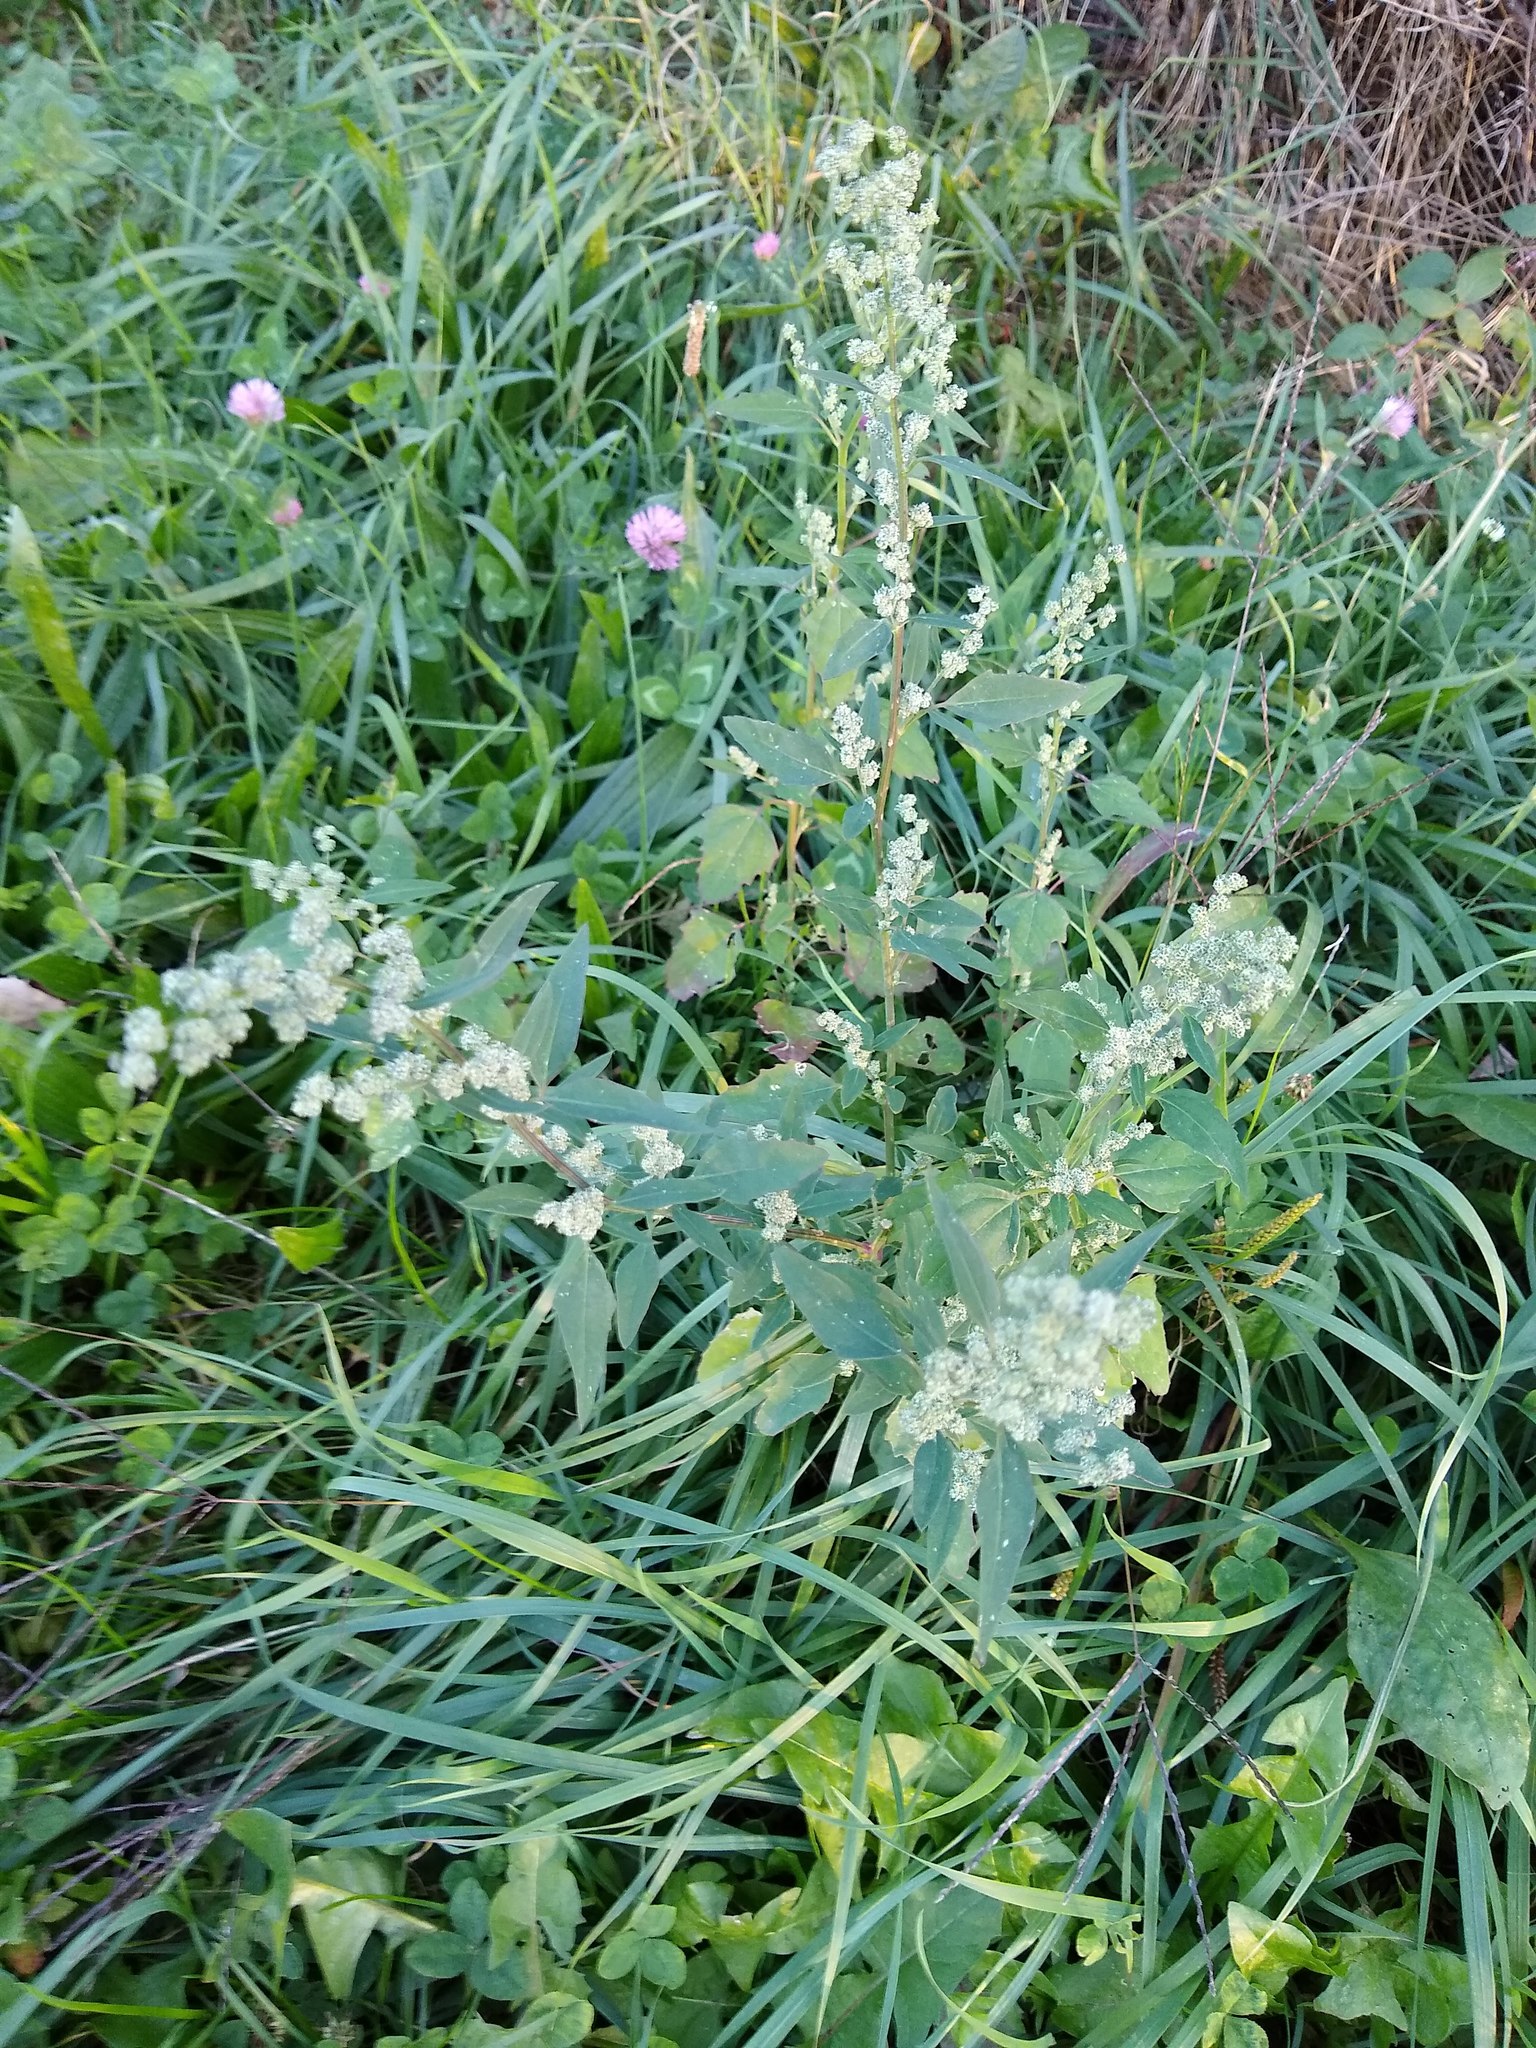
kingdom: Plantae
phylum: Tracheophyta
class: Magnoliopsida
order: Caryophyllales
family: Amaranthaceae
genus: Chenopodium
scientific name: Chenopodium album
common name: Fat-hen
